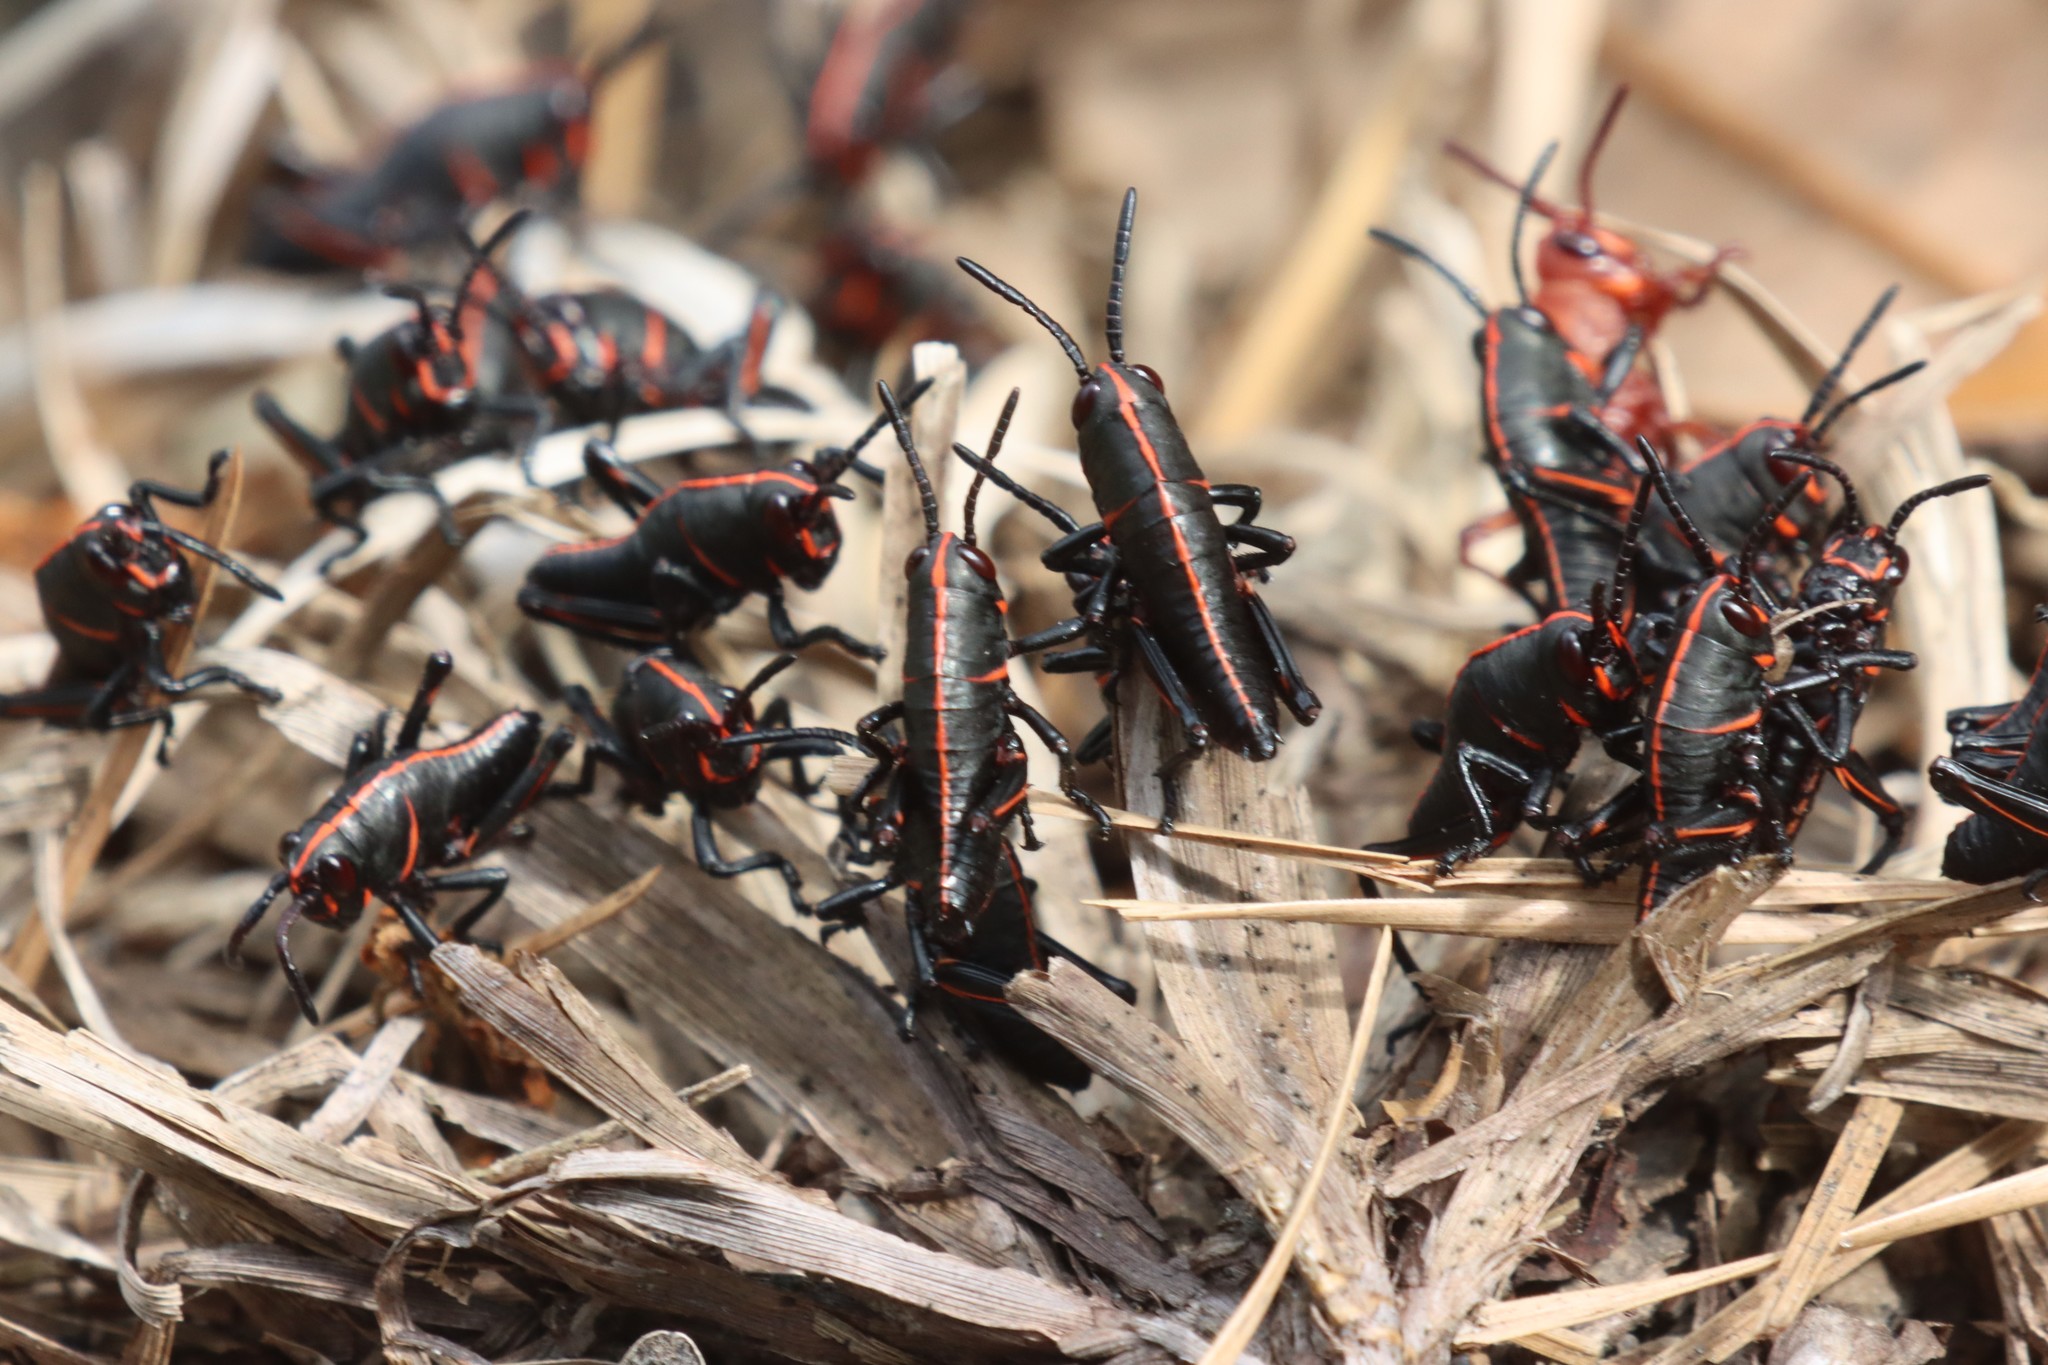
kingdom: Animalia
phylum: Arthropoda
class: Insecta
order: Orthoptera
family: Romaleidae
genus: Romalea
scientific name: Romalea microptera
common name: Eastern lubber grasshopper
